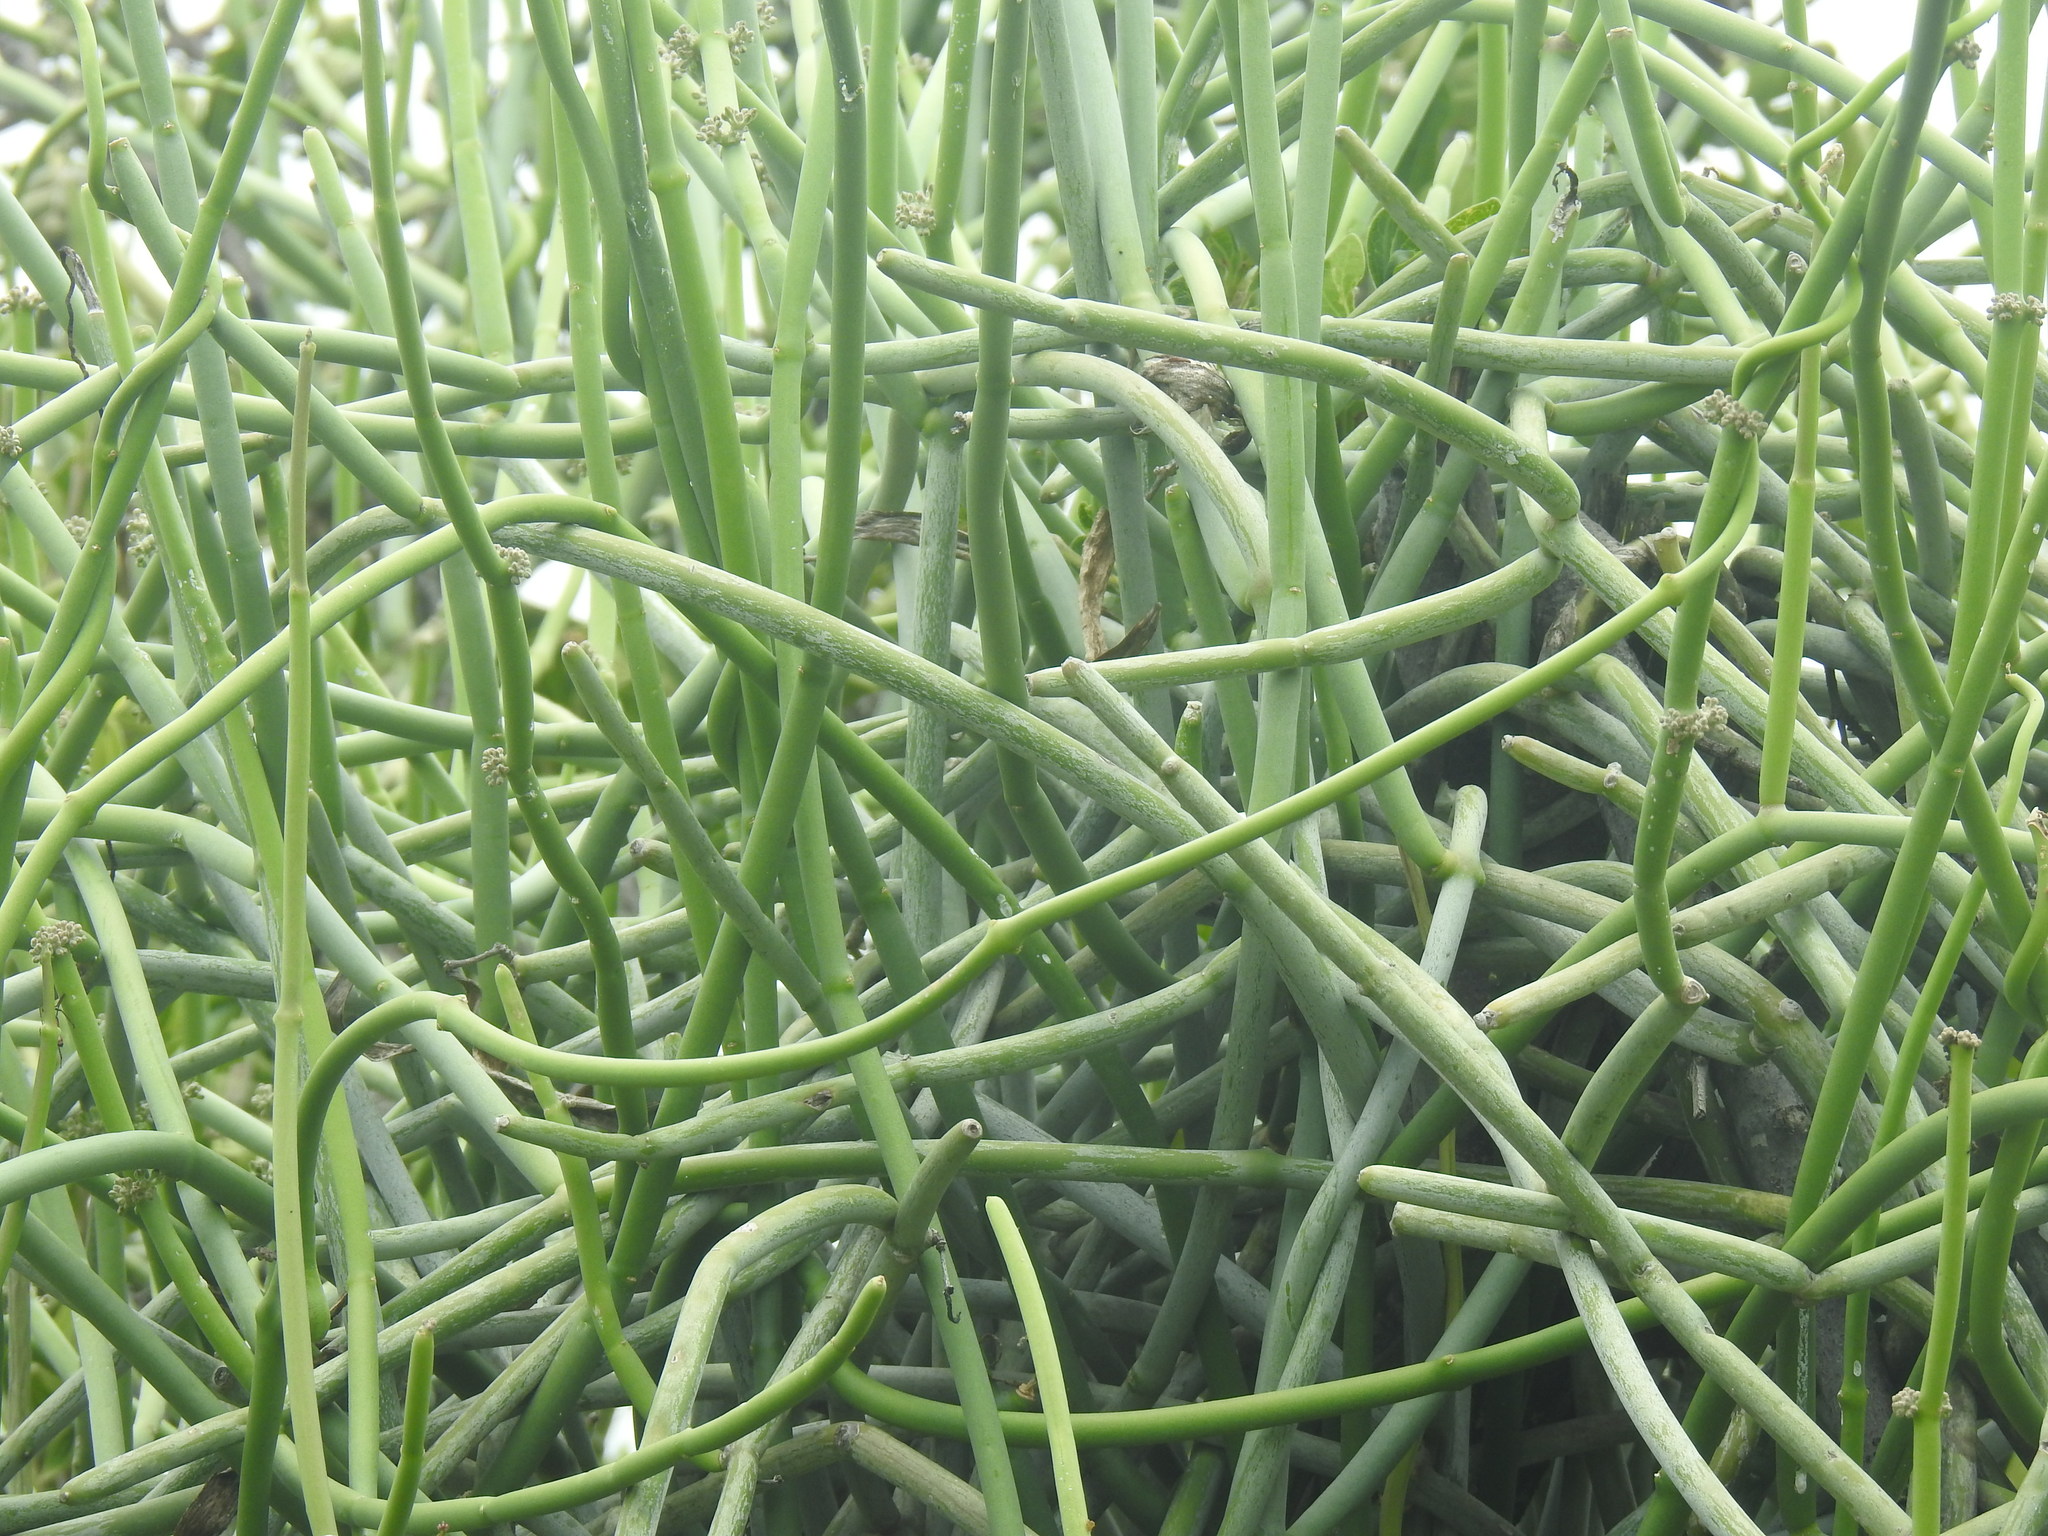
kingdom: Plantae
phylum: Tracheophyta
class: Magnoliopsida
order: Gentianales
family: Apocynaceae
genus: Cynanchum
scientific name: Cynanchum viminale
